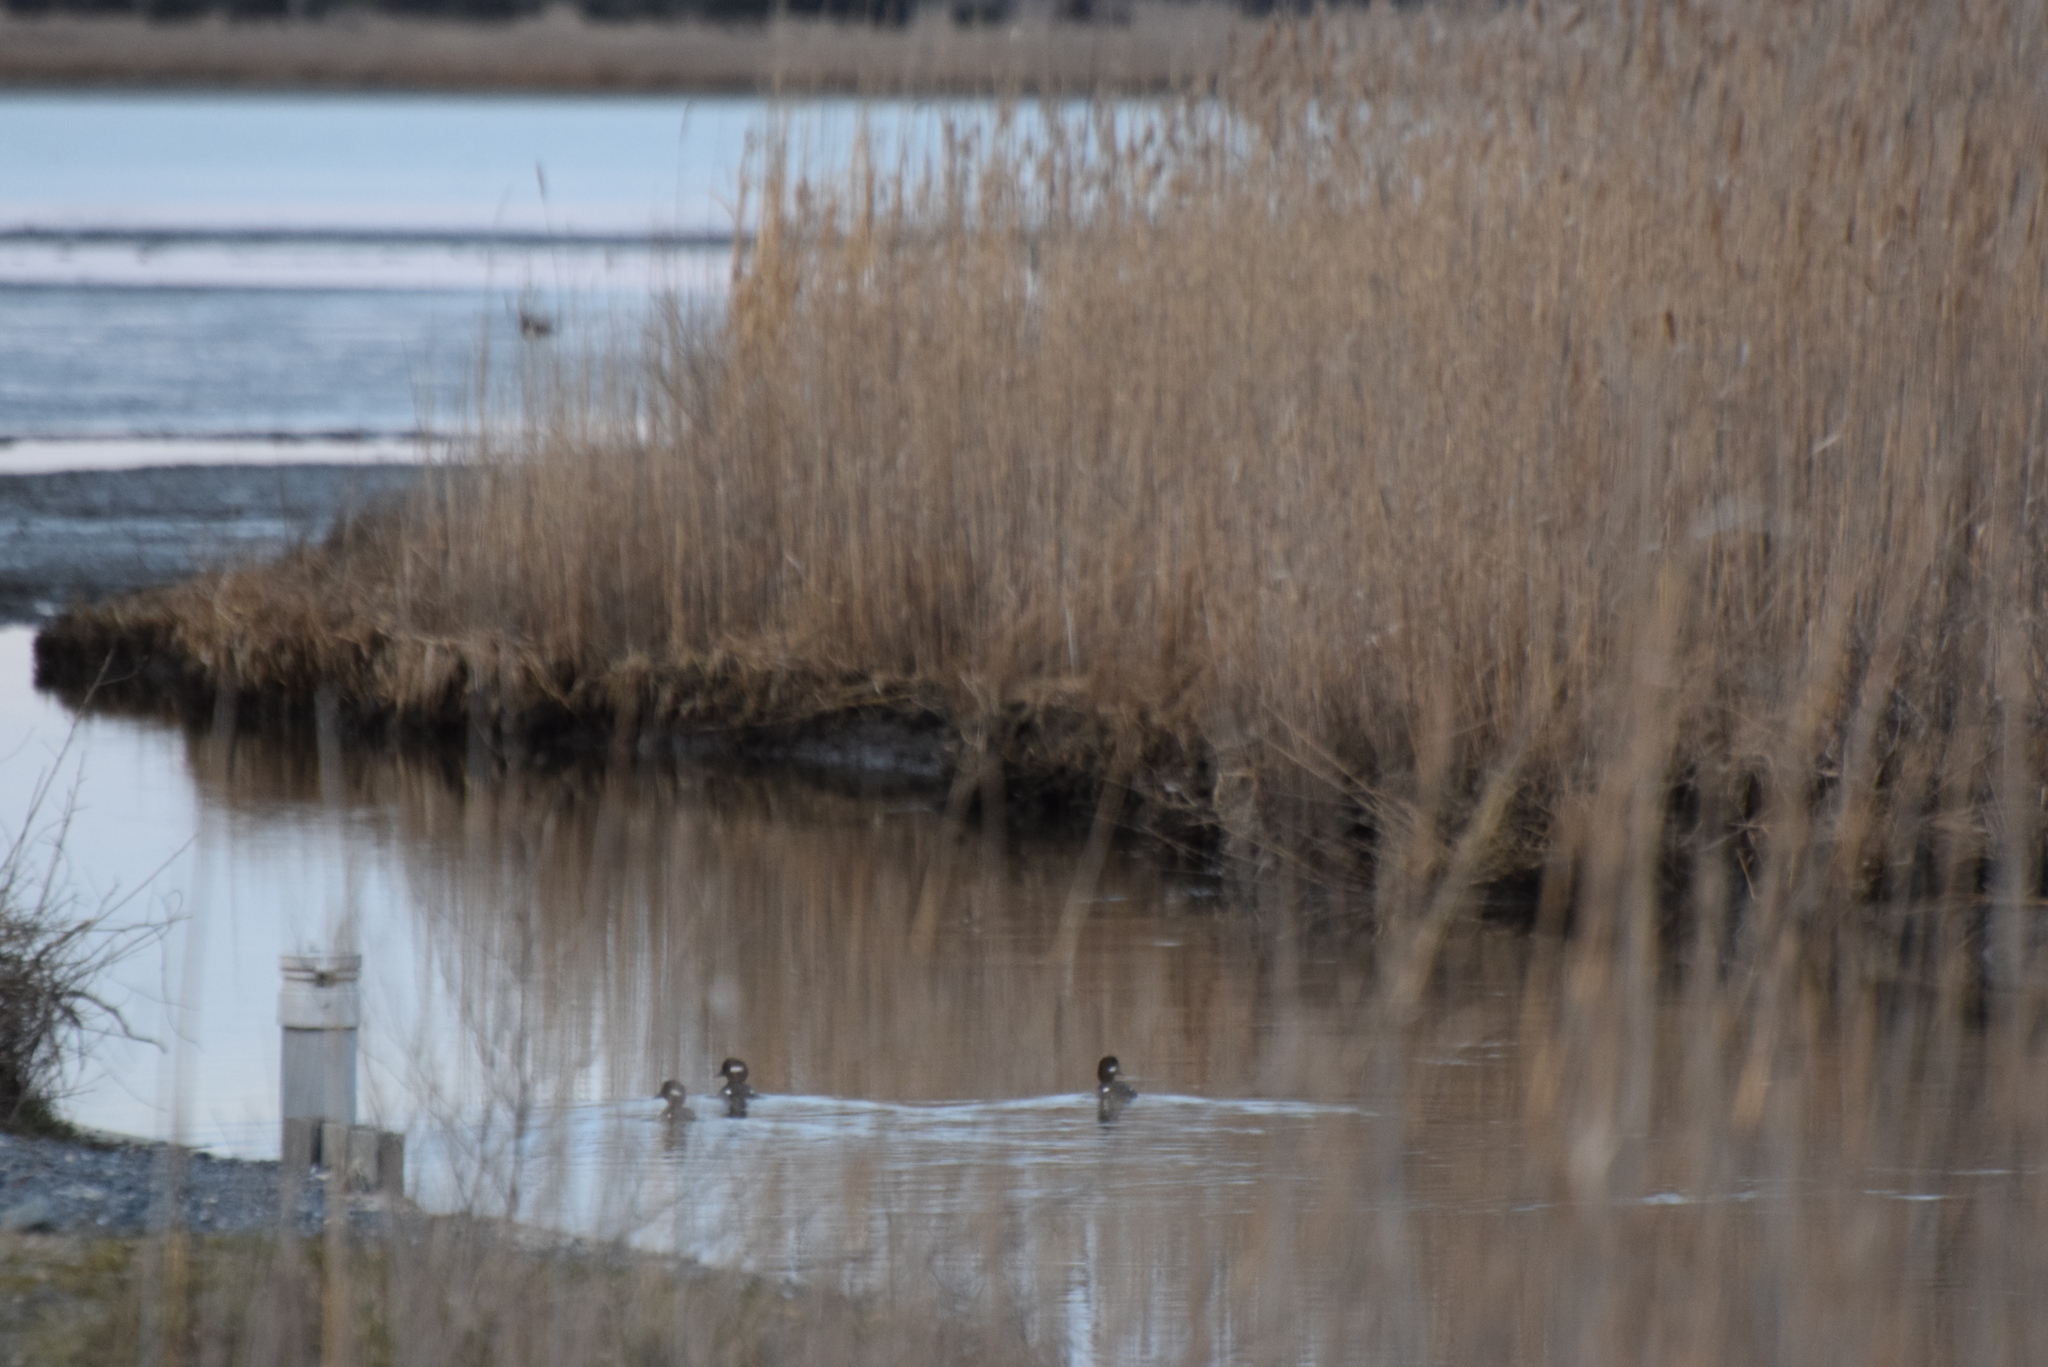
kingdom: Animalia
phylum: Chordata
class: Aves
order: Anseriformes
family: Anatidae
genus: Bucephala
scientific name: Bucephala albeola
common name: Bufflehead
